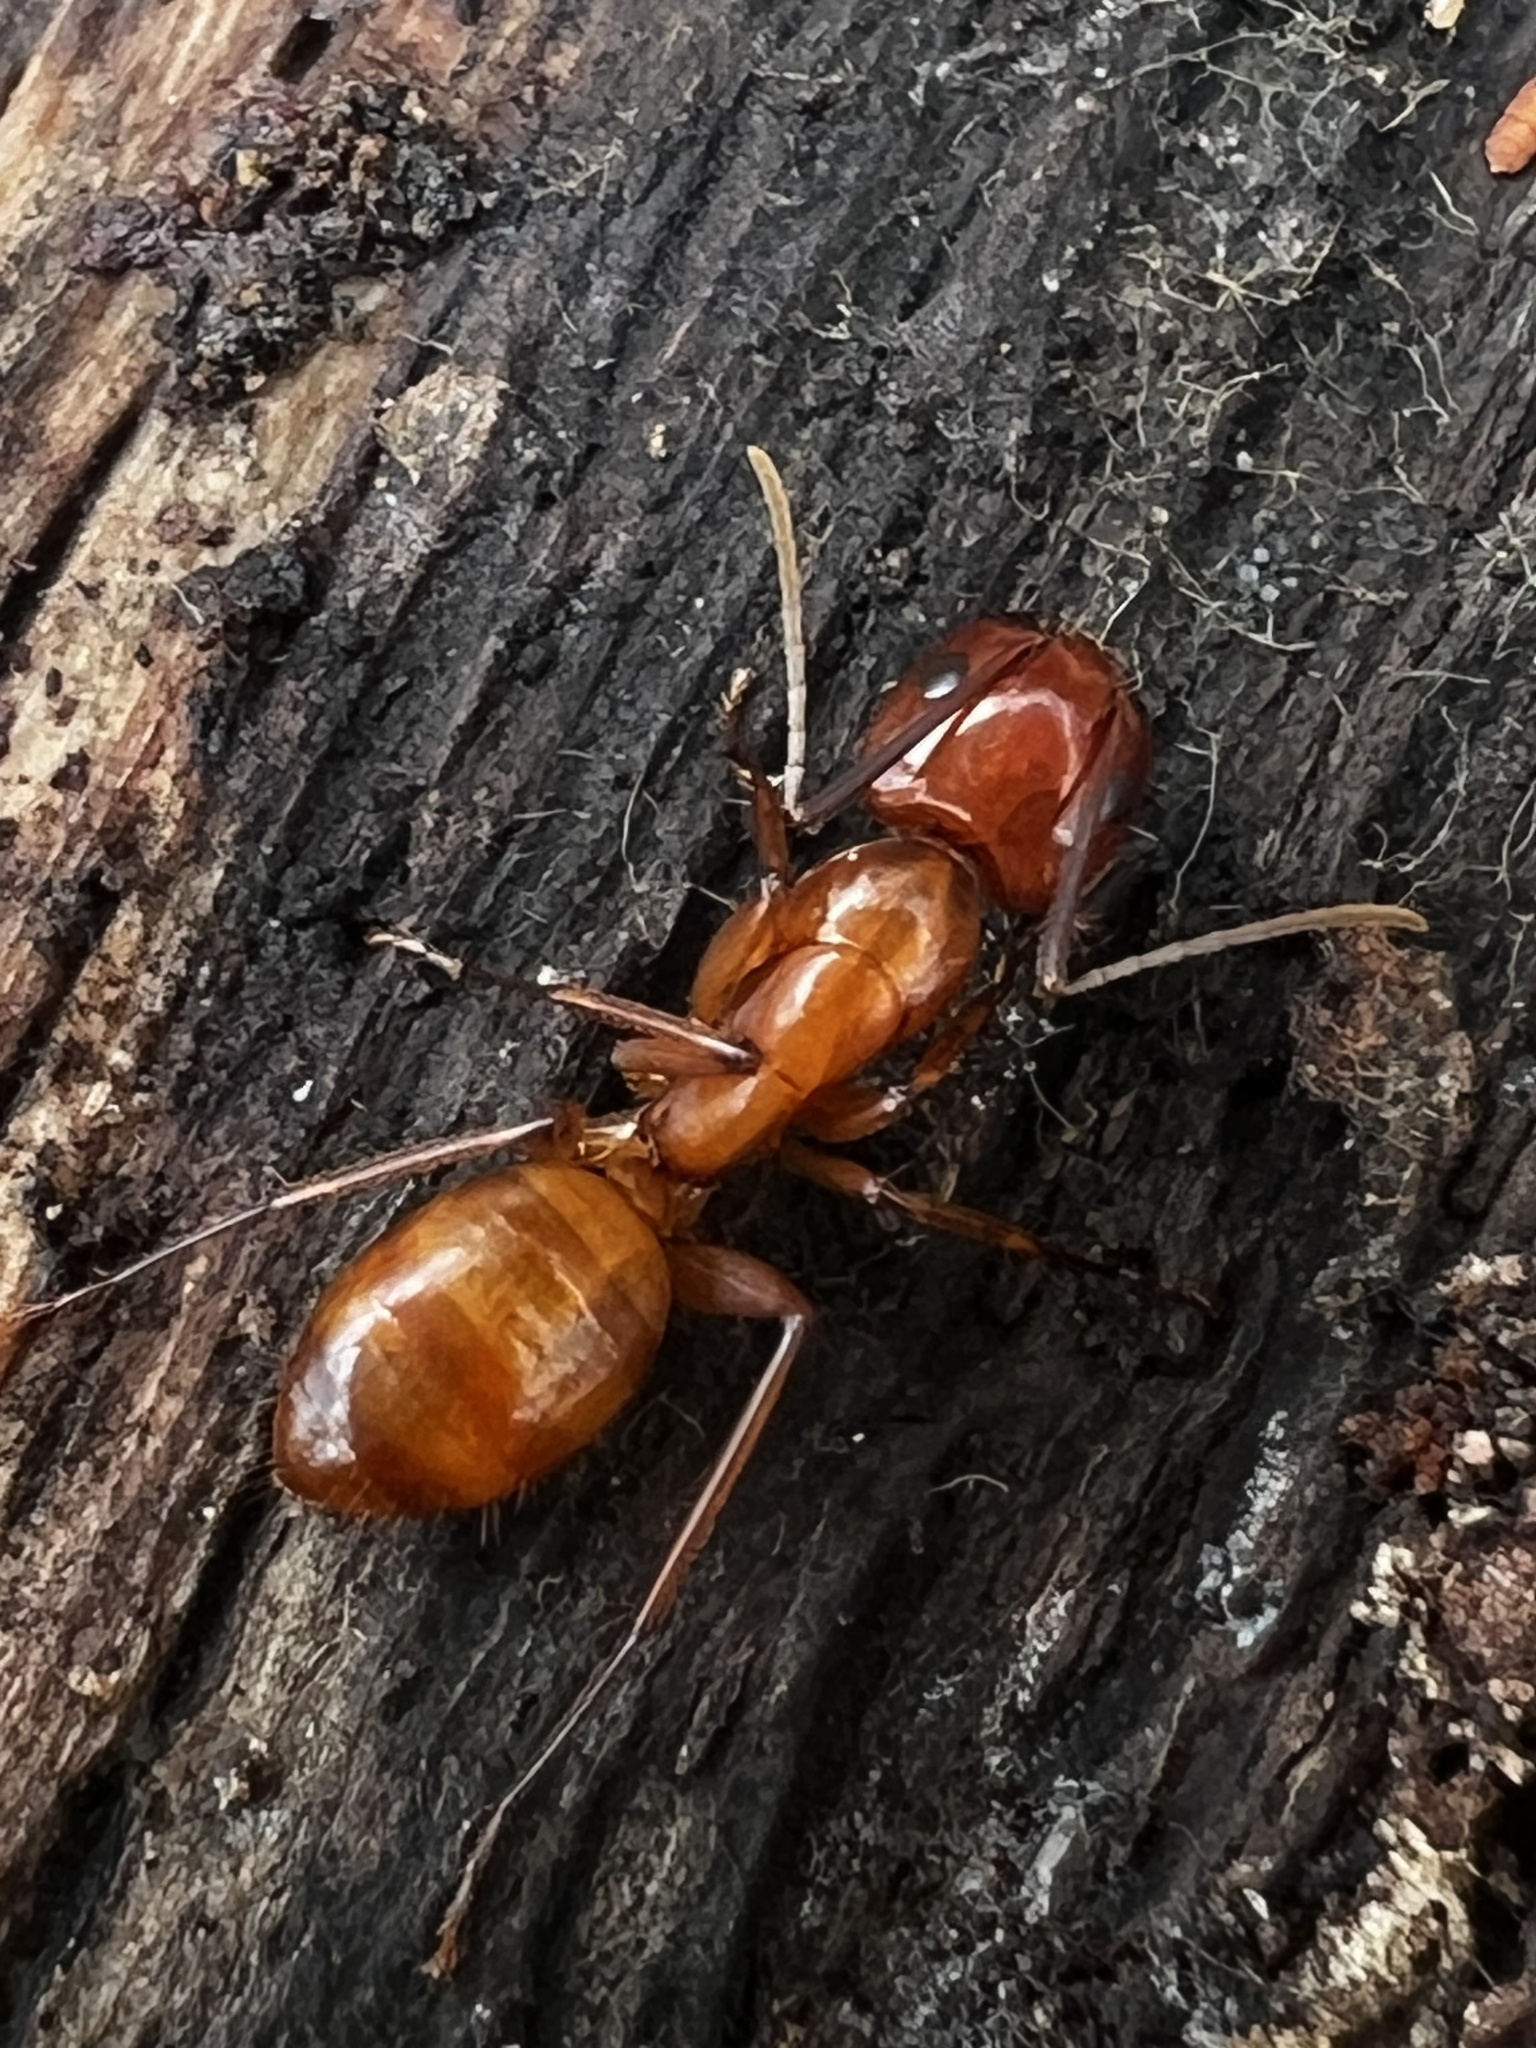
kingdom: Animalia
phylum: Arthropoda
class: Insecta
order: Hymenoptera
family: Formicidae
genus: Camponotus
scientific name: Camponotus castaneus
